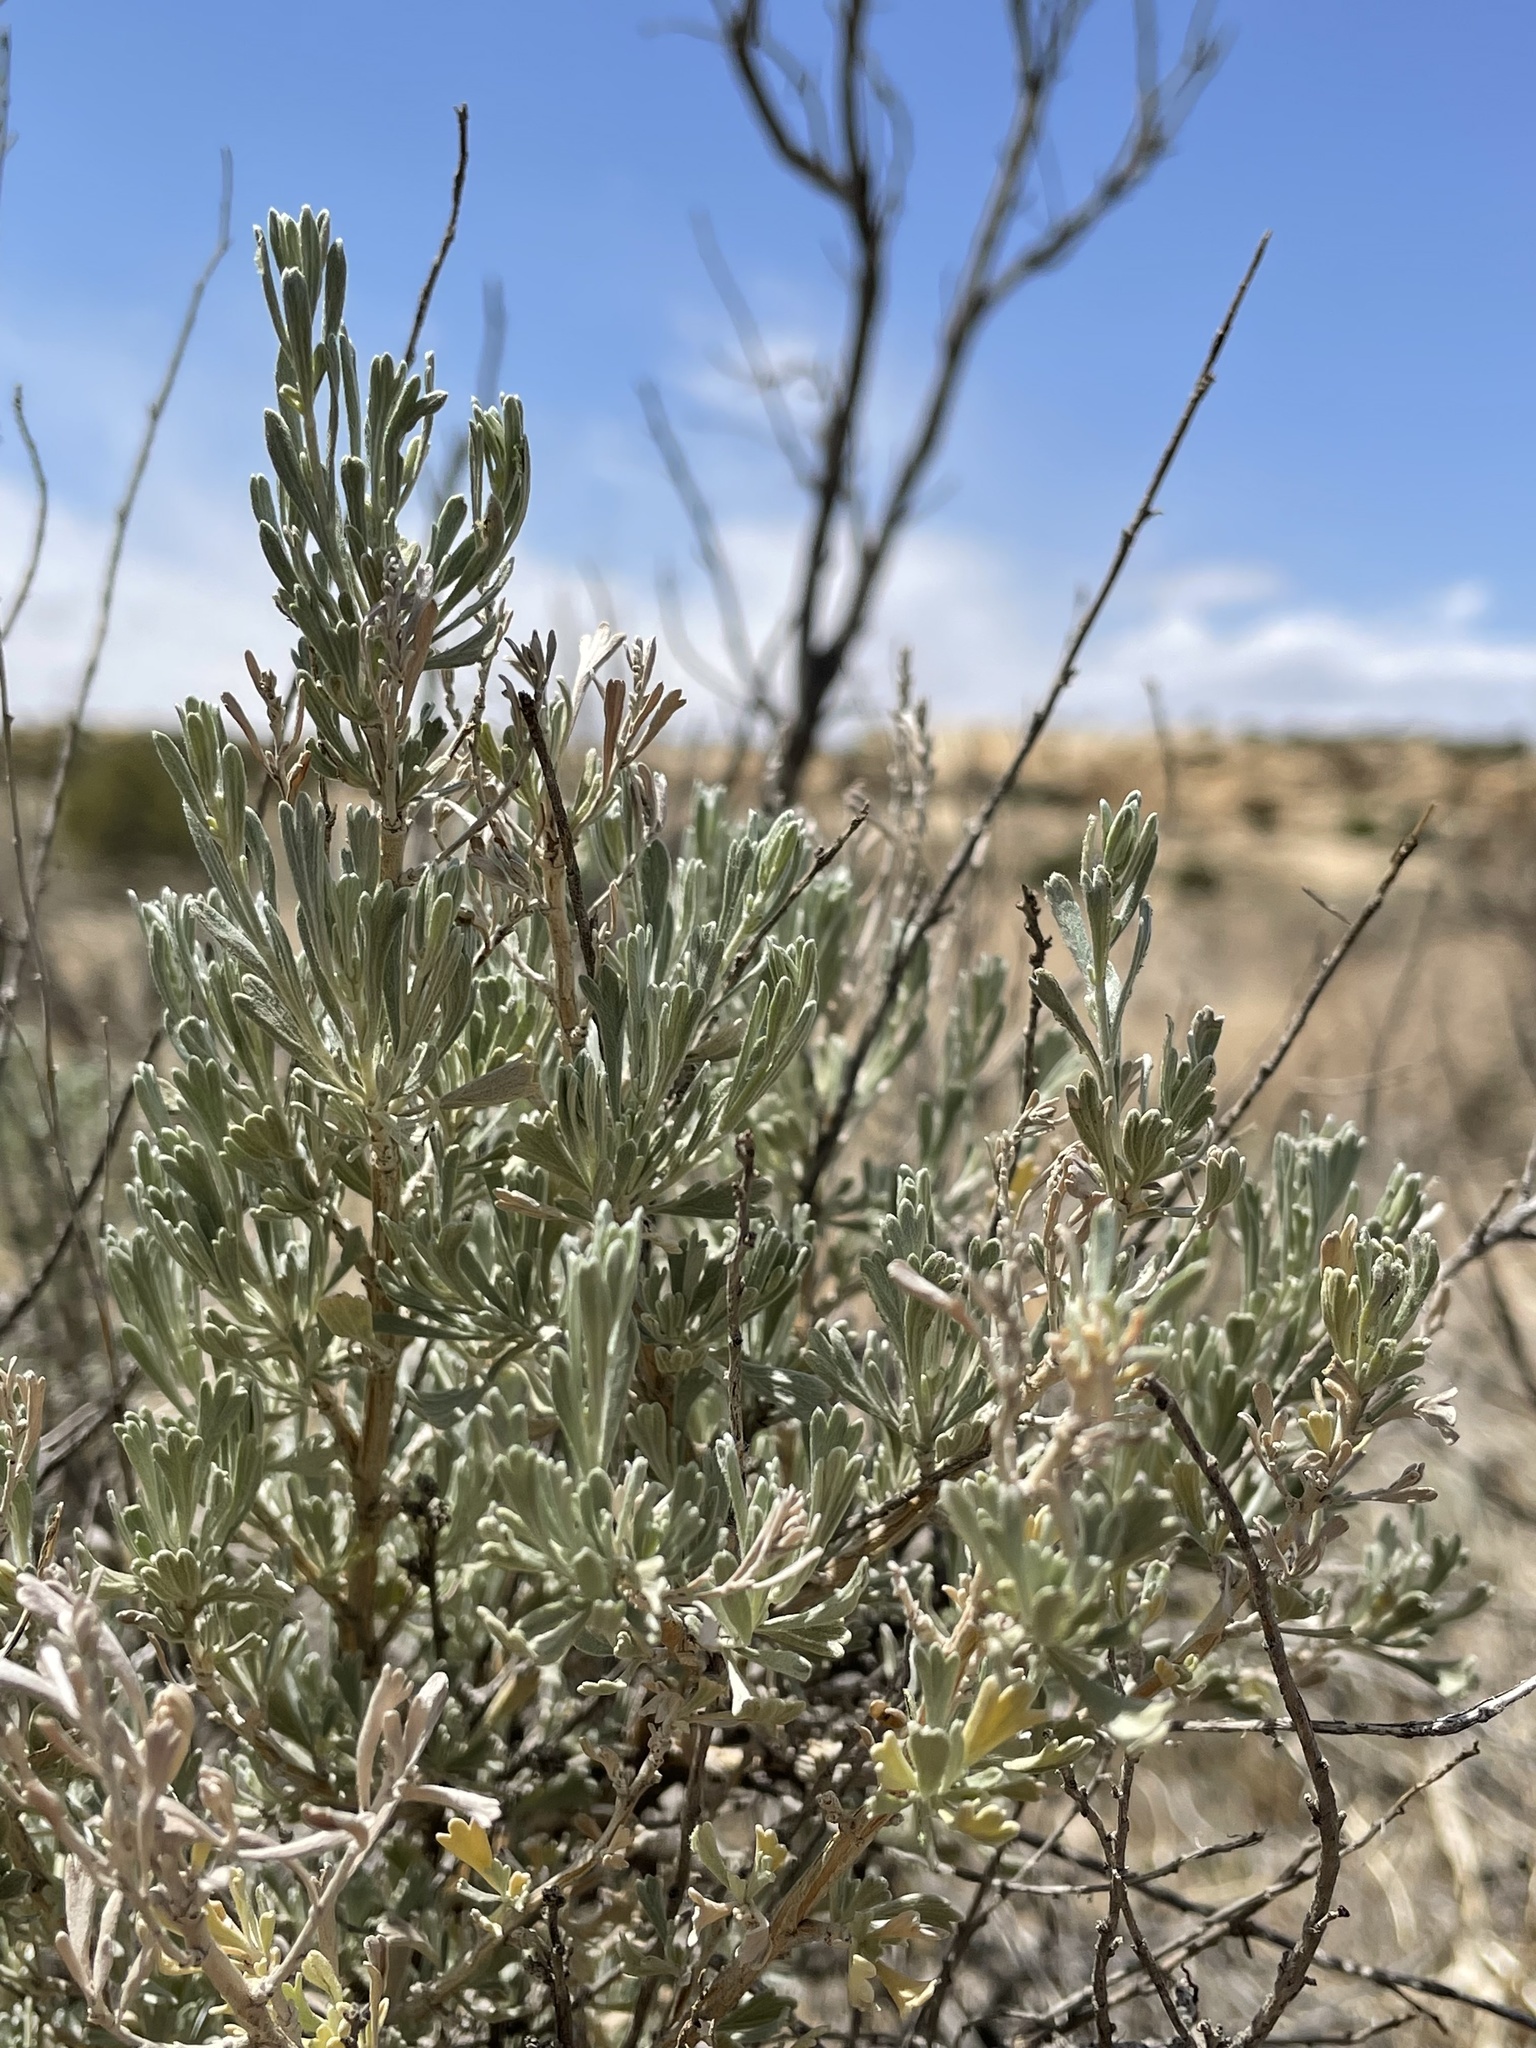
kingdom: Plantae
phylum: Tracheophyta
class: Magnoliopsida
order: Asterales
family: Asteraceae
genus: Artemisia
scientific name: Artemisia tridentata
